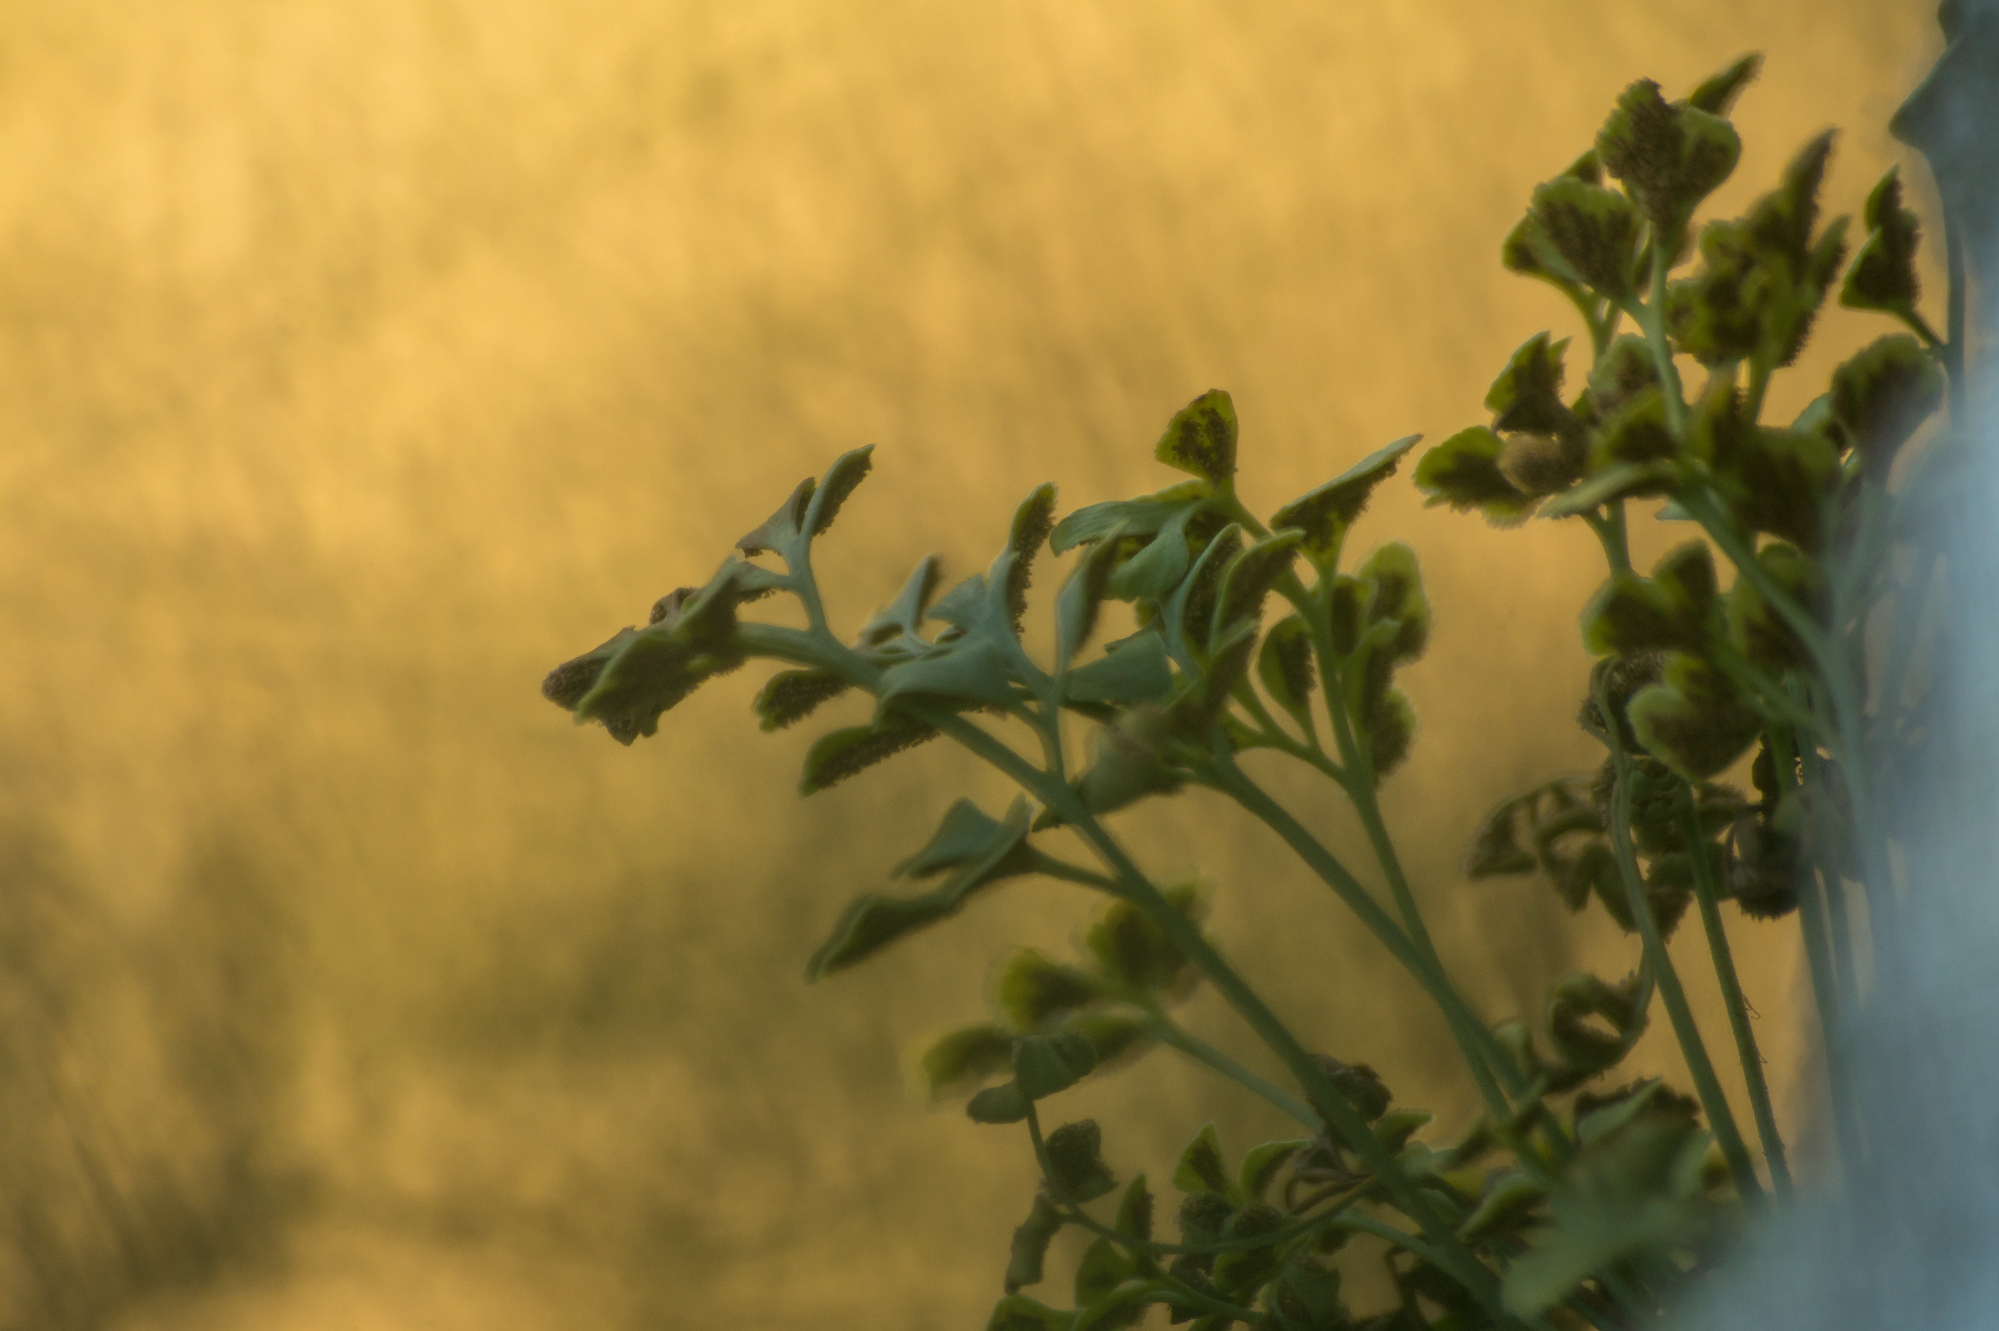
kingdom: Plantae
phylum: Tracheophyta
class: Polypodiopsida
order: Polypodiales
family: Aspleniaceae
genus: Asplenium
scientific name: Asplenium ruta-muraria
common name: Wall-rue
